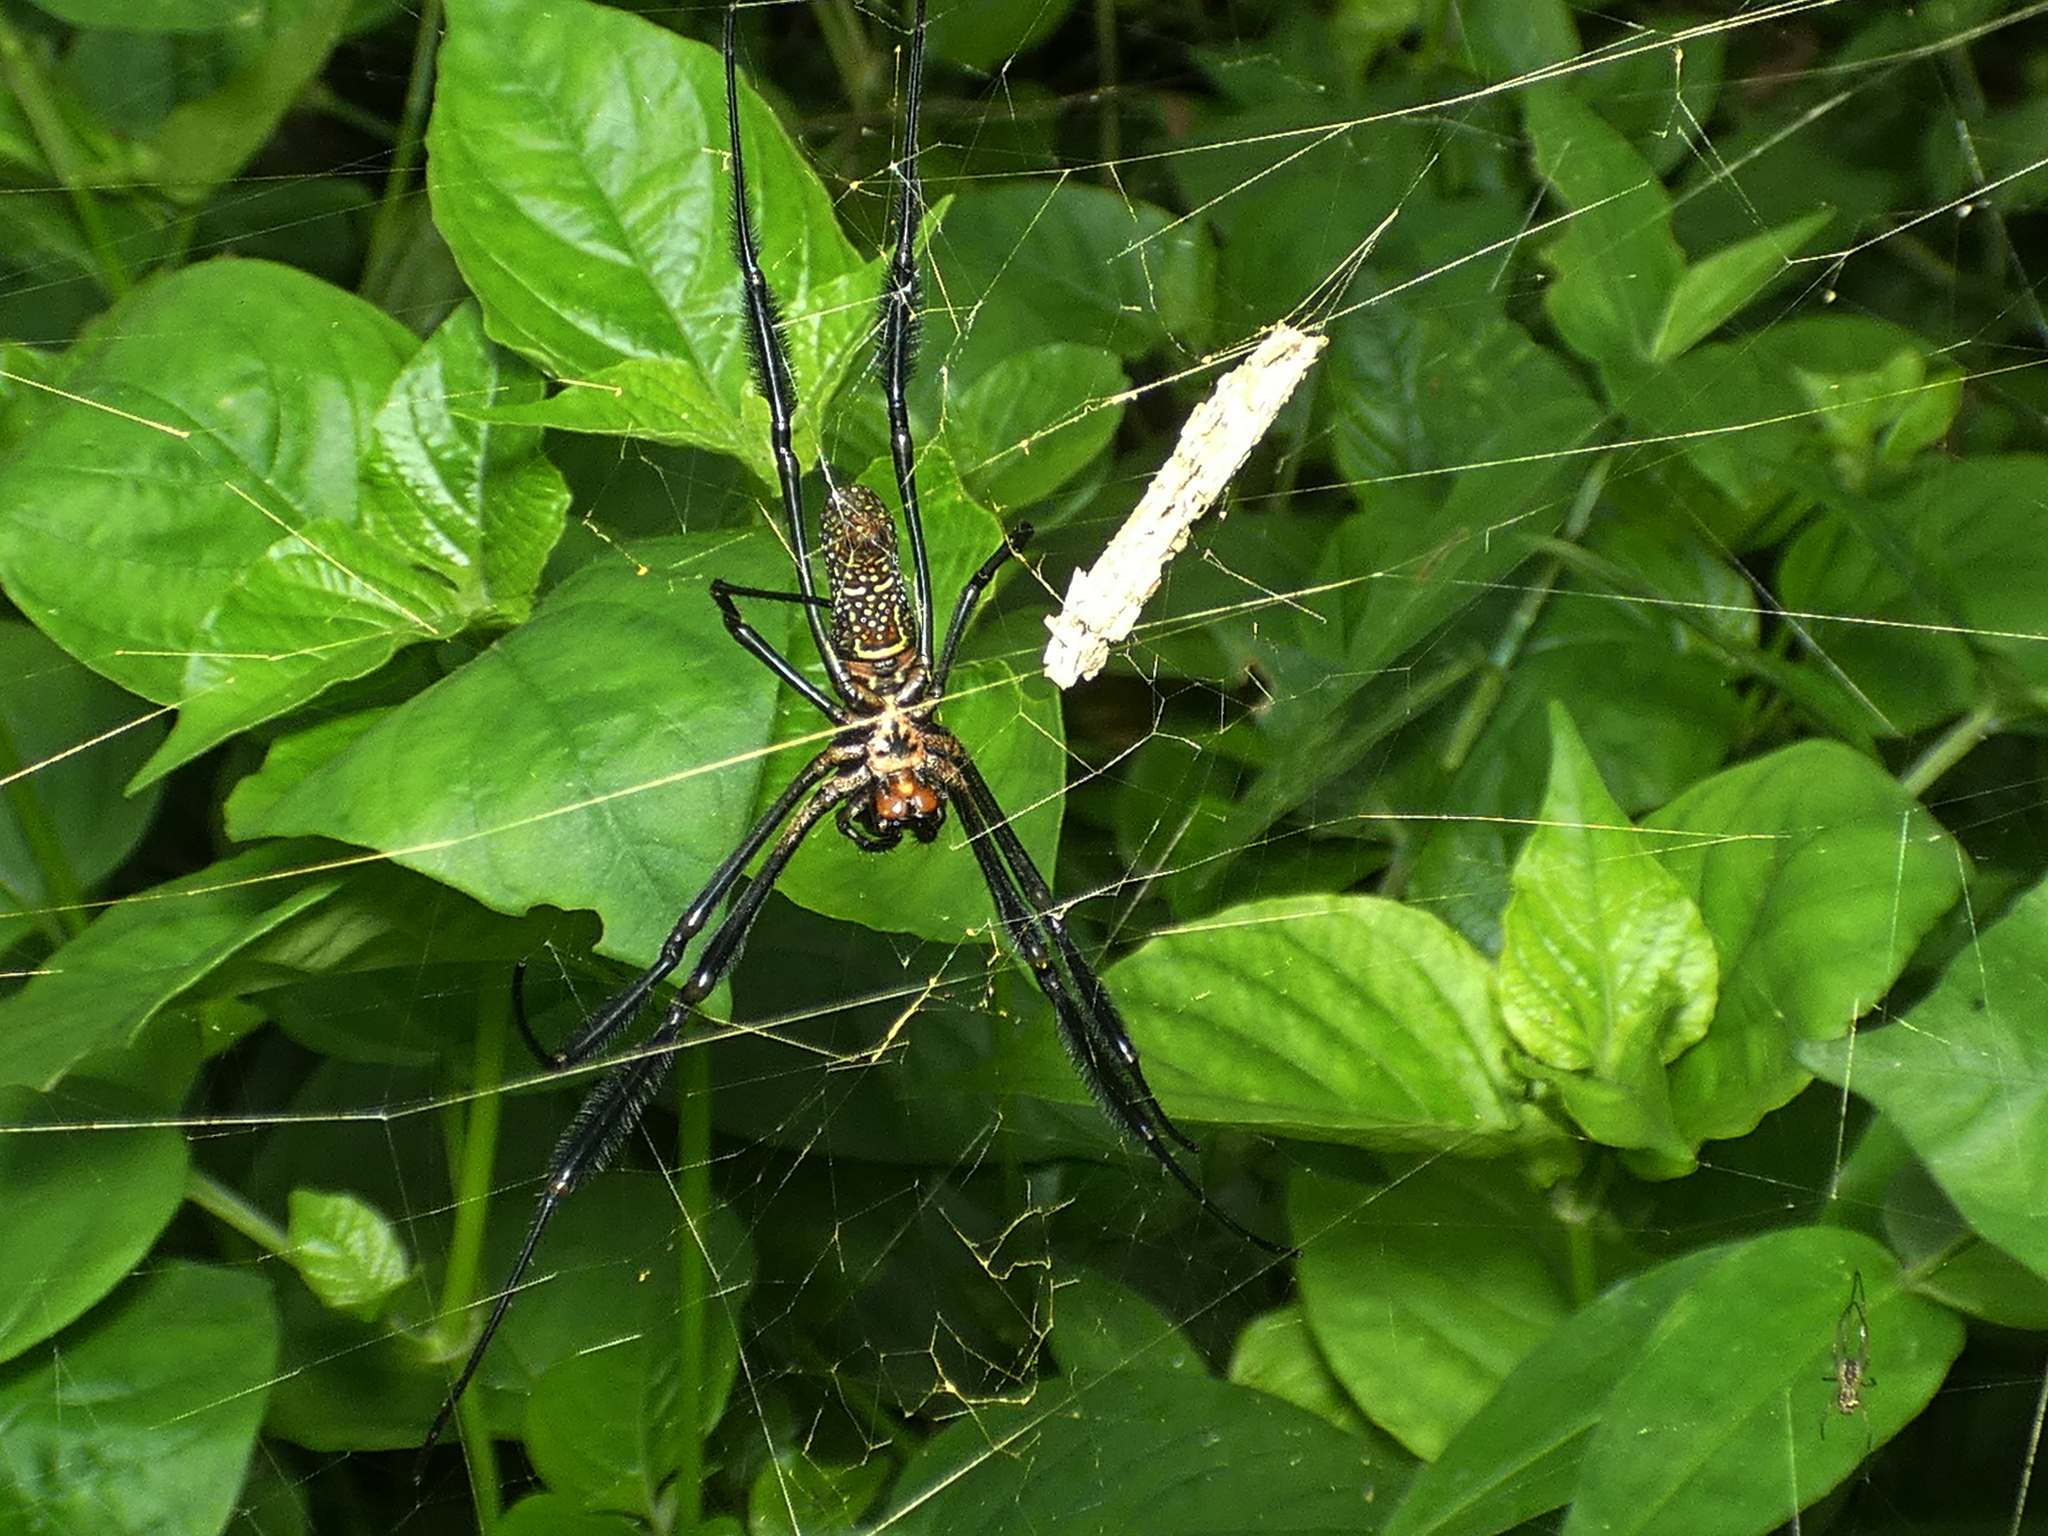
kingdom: Animalia
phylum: Arthropoda
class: Arachnida
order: Araneae
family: Araneidae
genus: Trichonephila
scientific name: Trichonephila clavipes
